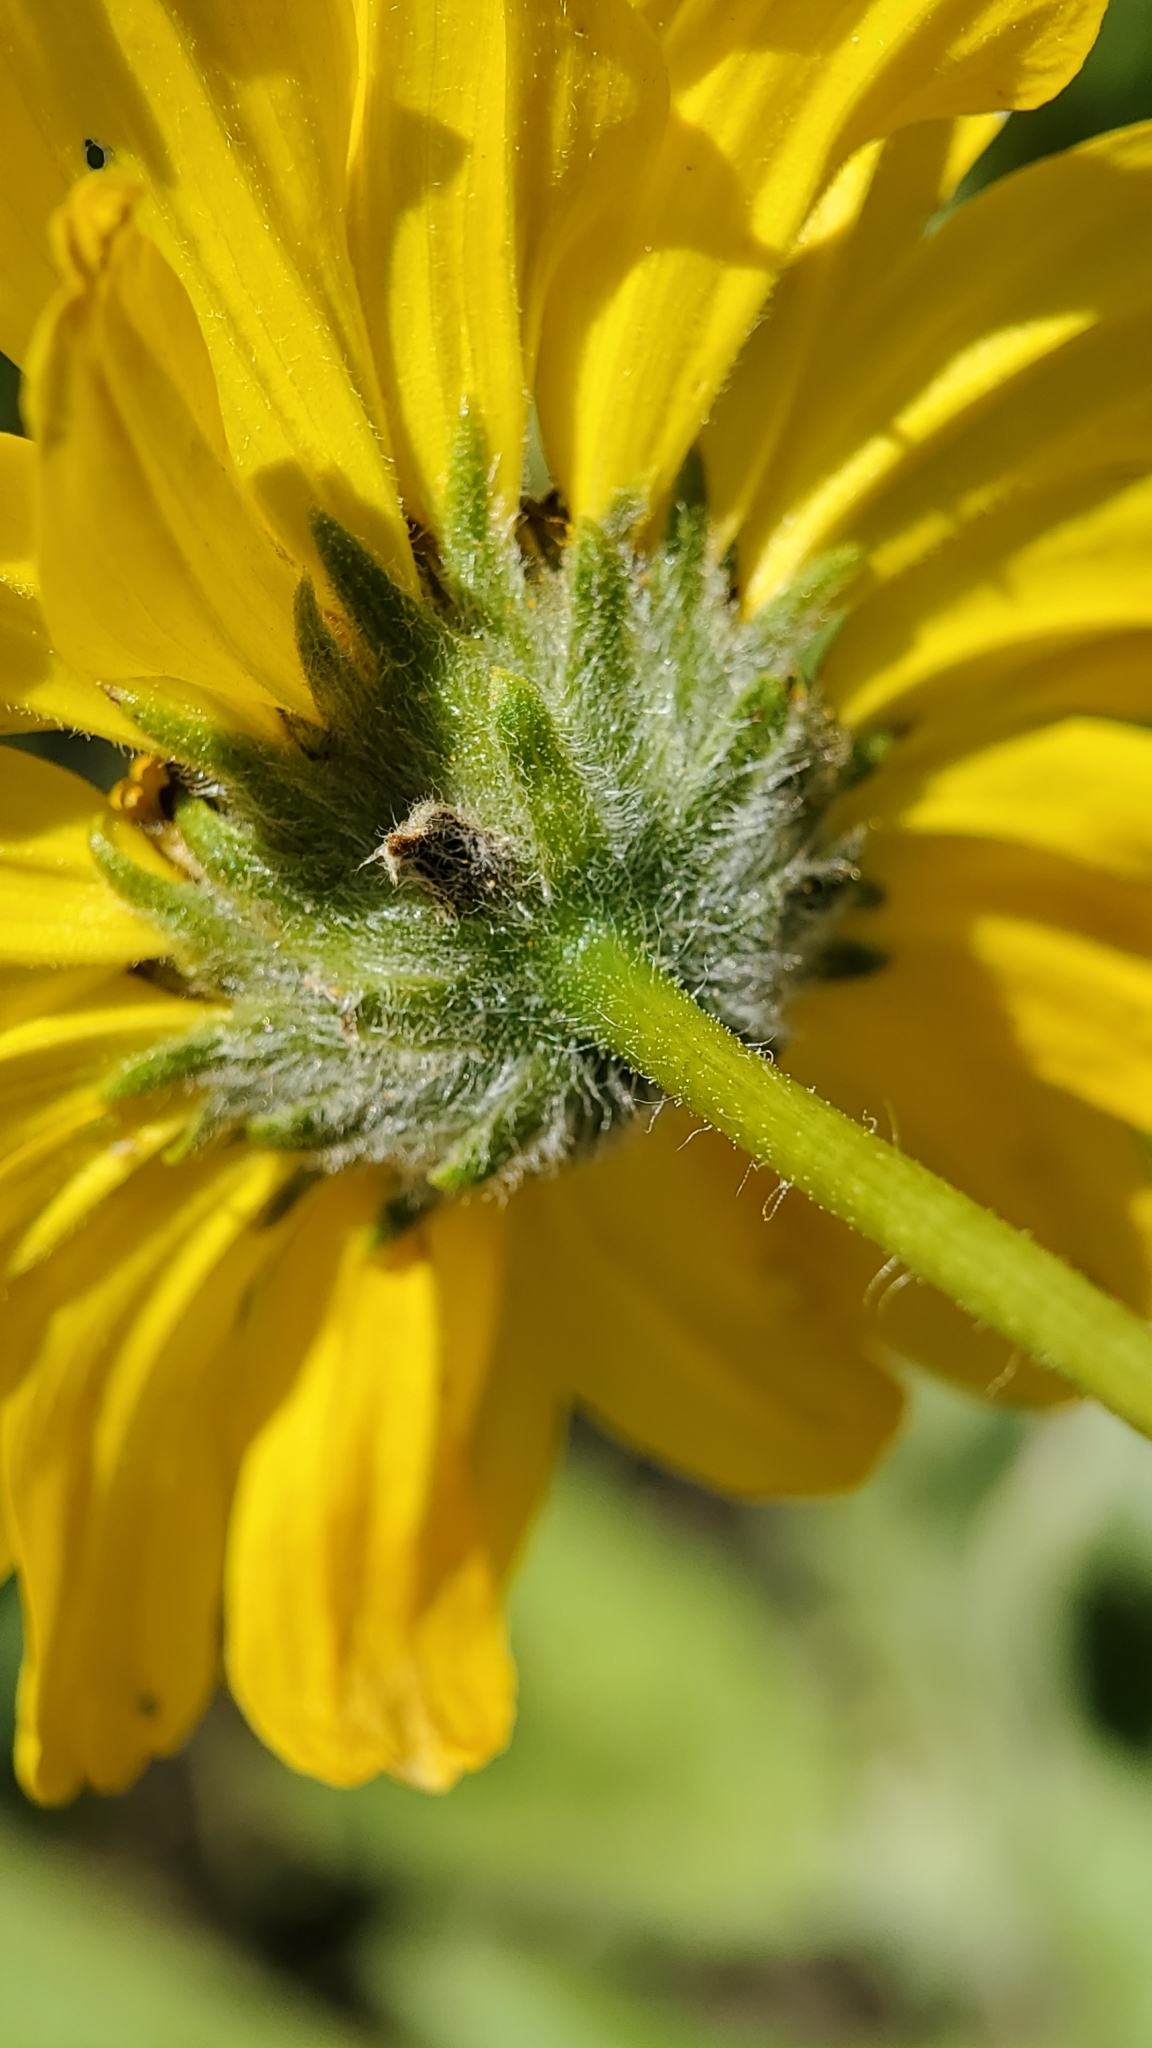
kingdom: Plantae
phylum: Tracheophyta
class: Magnoliopsida
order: Asterales
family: Asteraceae
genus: Encelia
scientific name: Encelia
